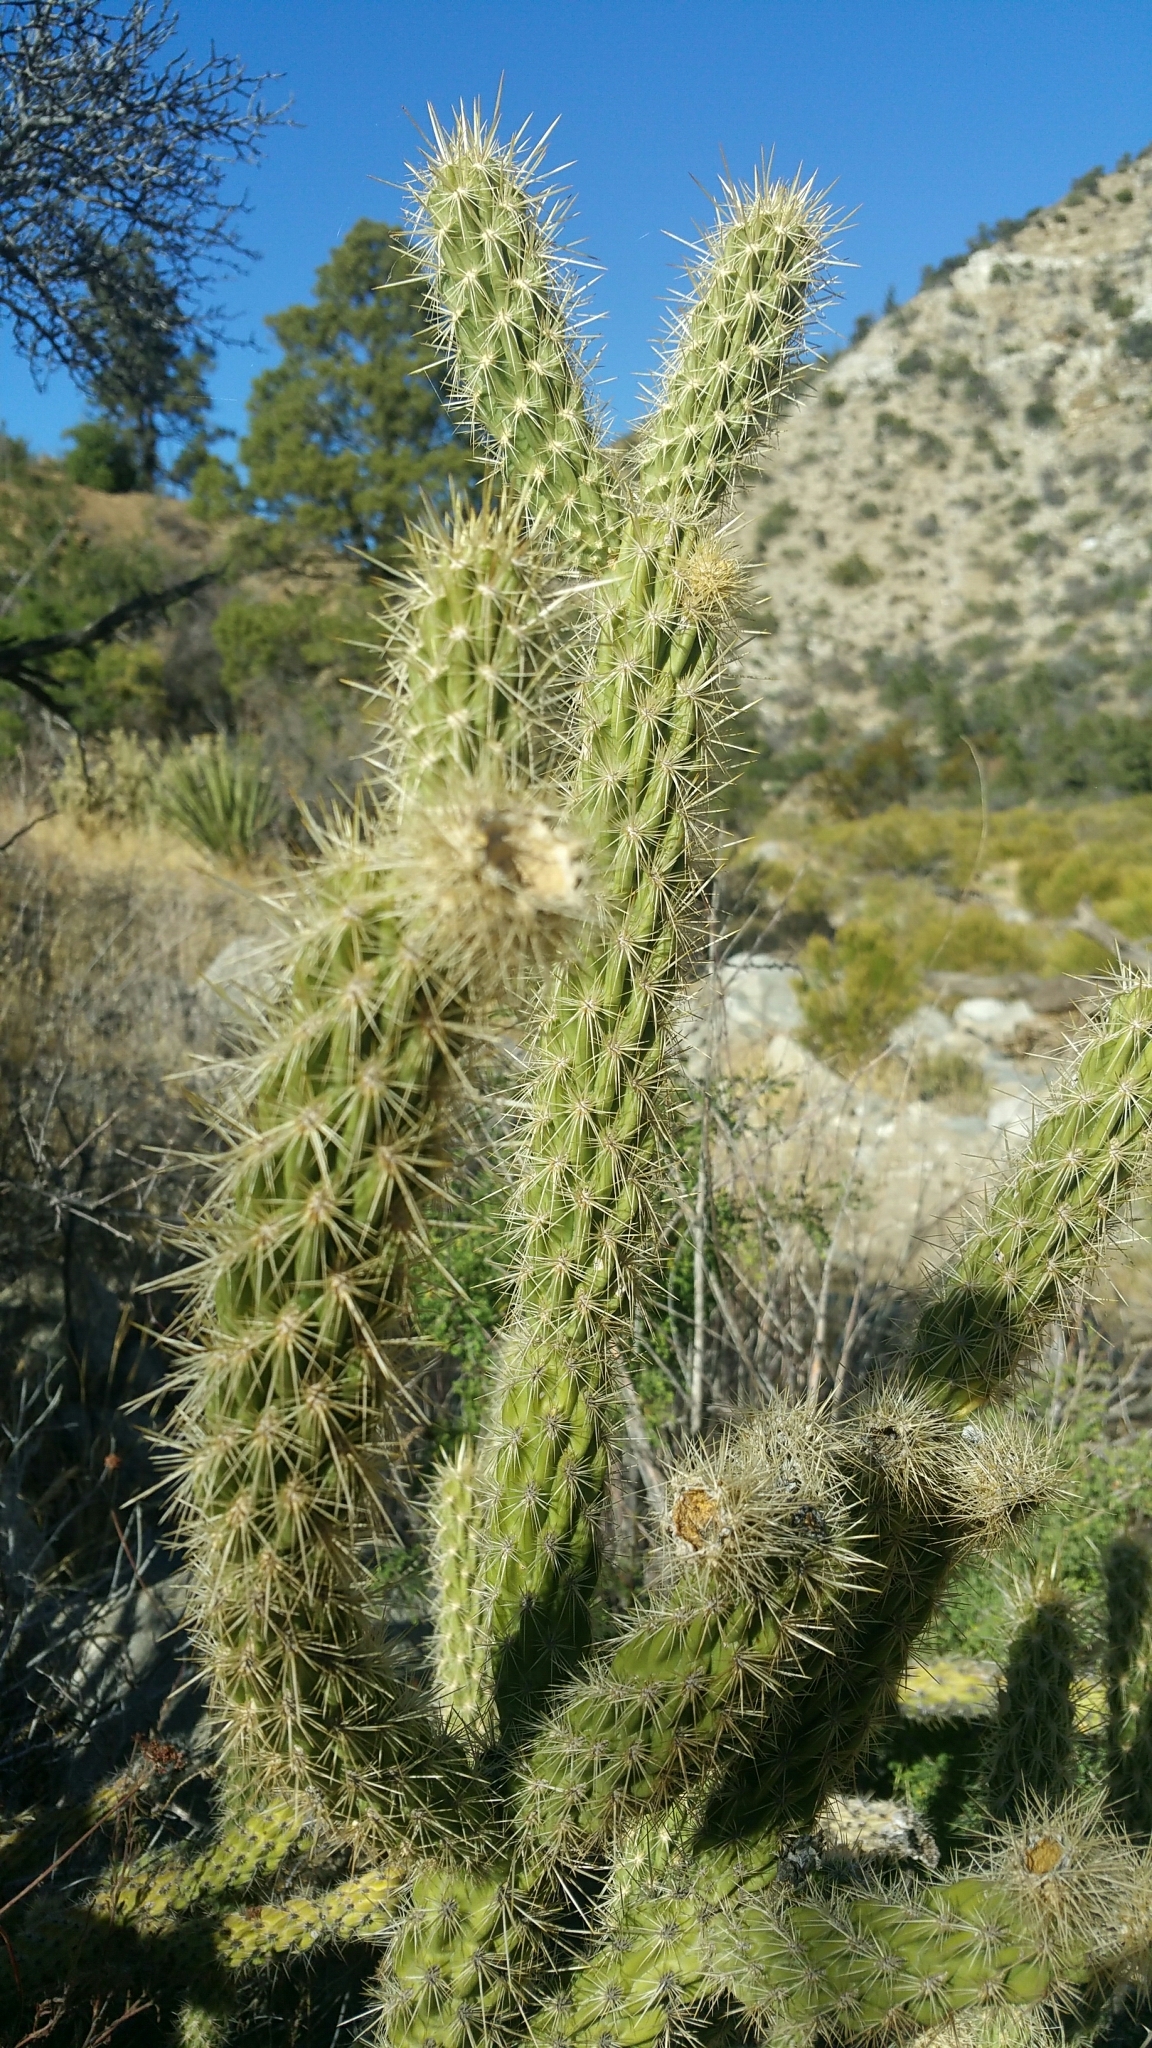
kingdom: Plantae
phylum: Tracheophyta
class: Magnoliopsida
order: Caryophyllales
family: Cactaceae
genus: Cylindropuntia
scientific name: Cylindropuntia ganderi
